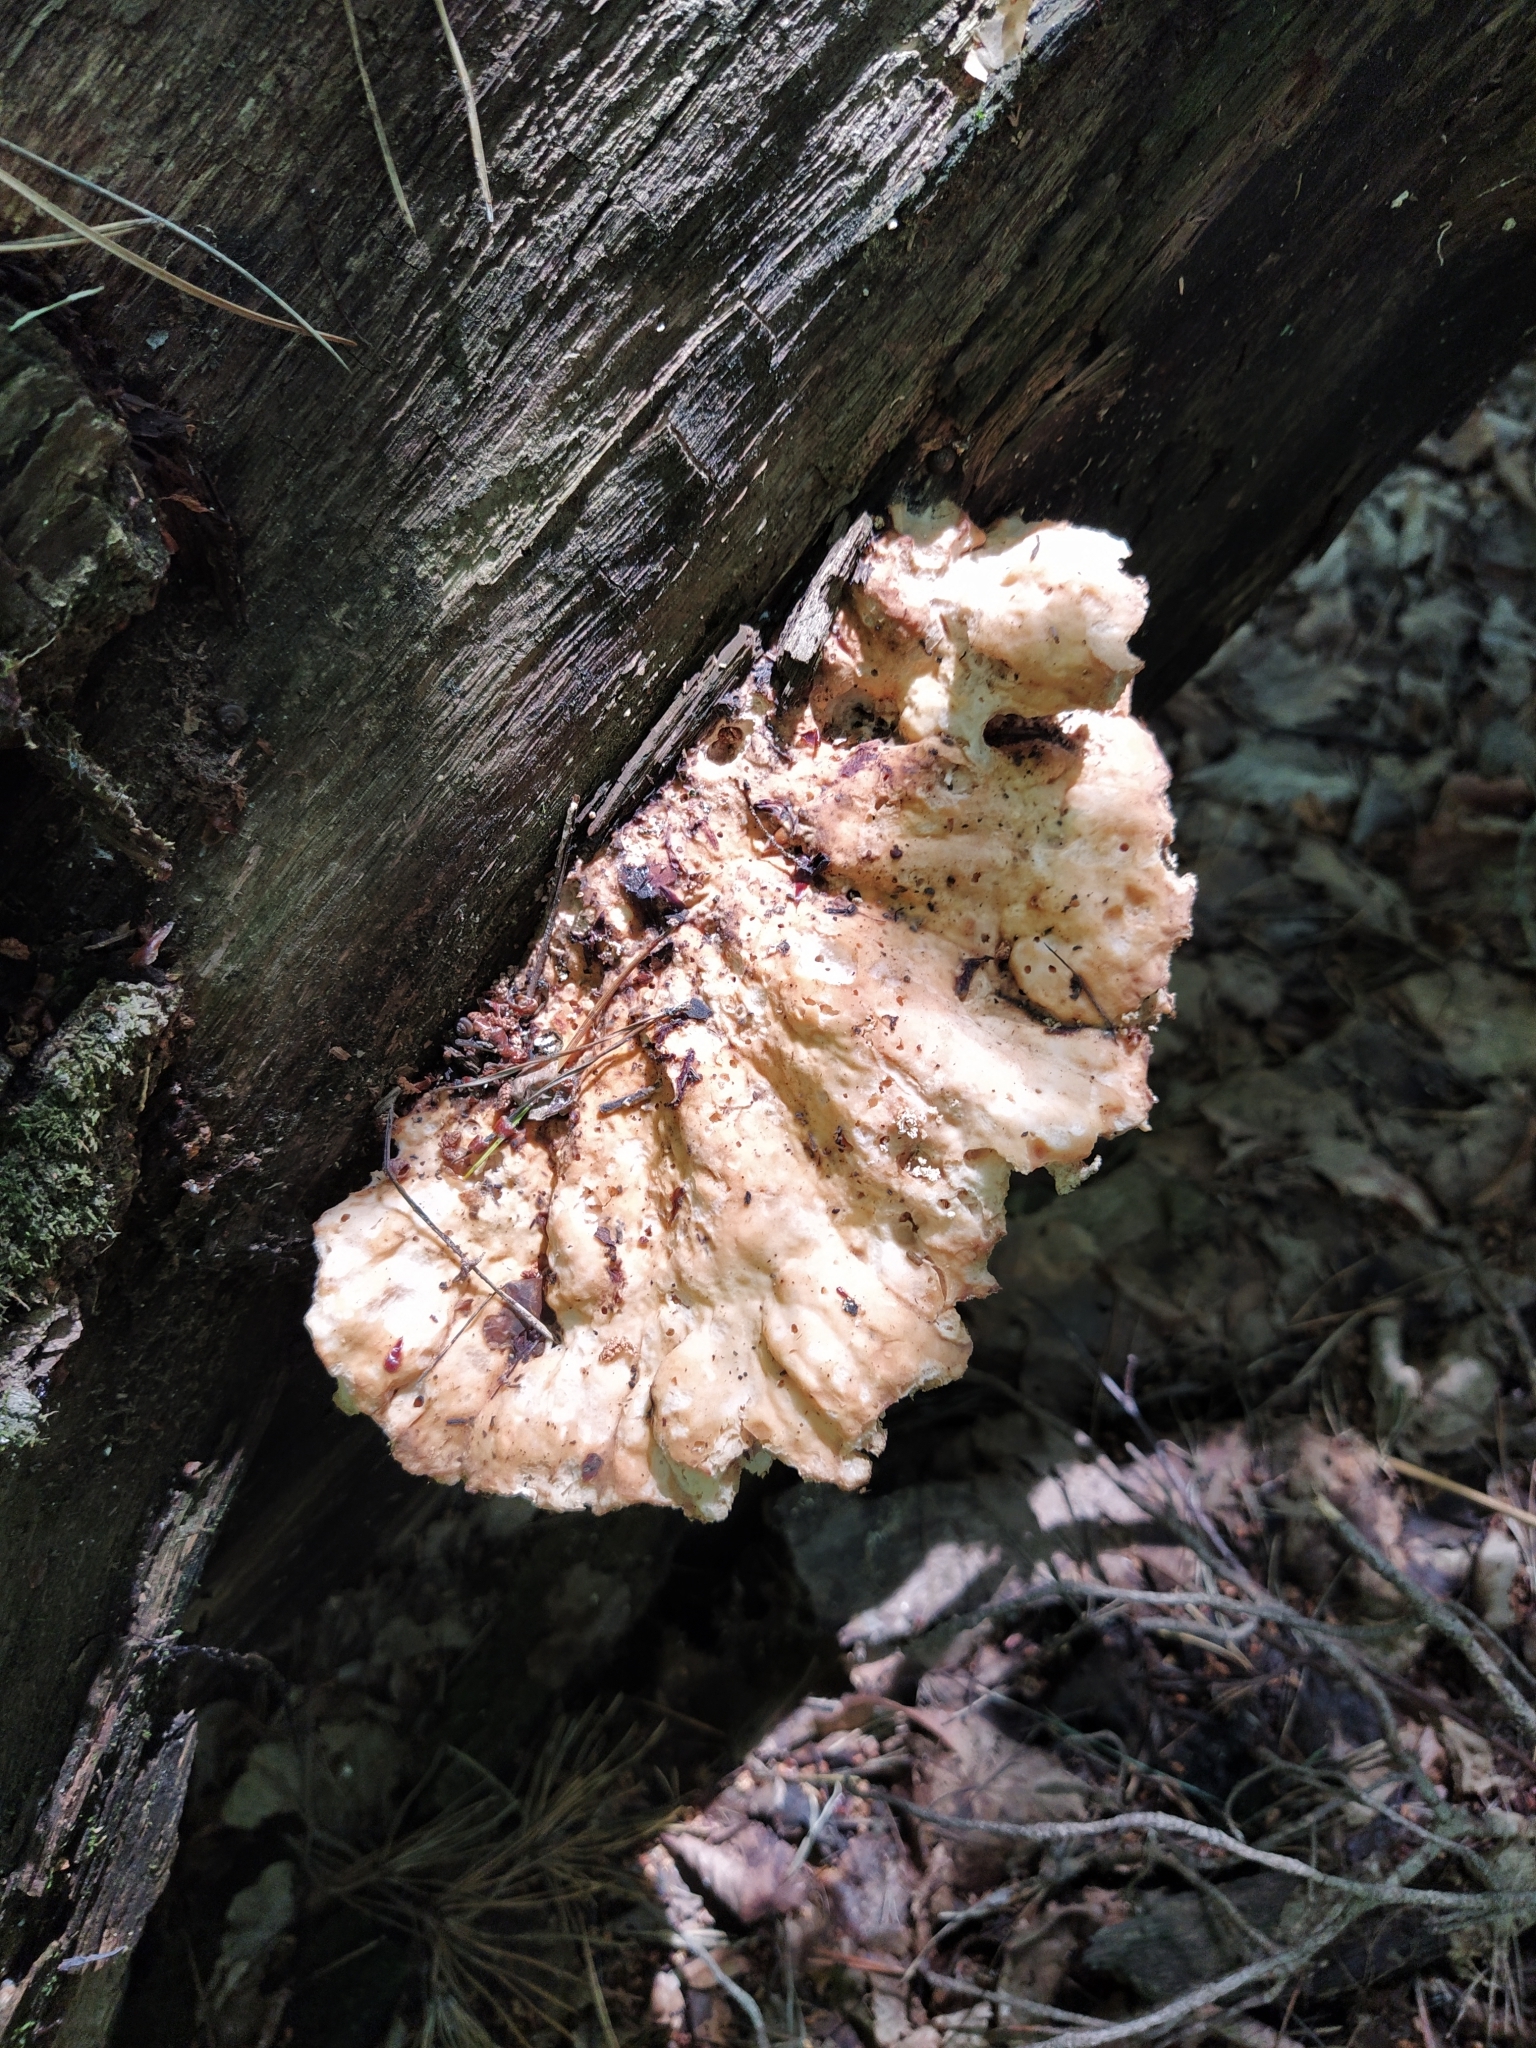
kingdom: Fungi
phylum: Basidiomycota
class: Agaricomycetes
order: Polyporales
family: Laetiporaceae
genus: Laetiporus
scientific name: Laetiporus sulphureus
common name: Chicken of the woods
